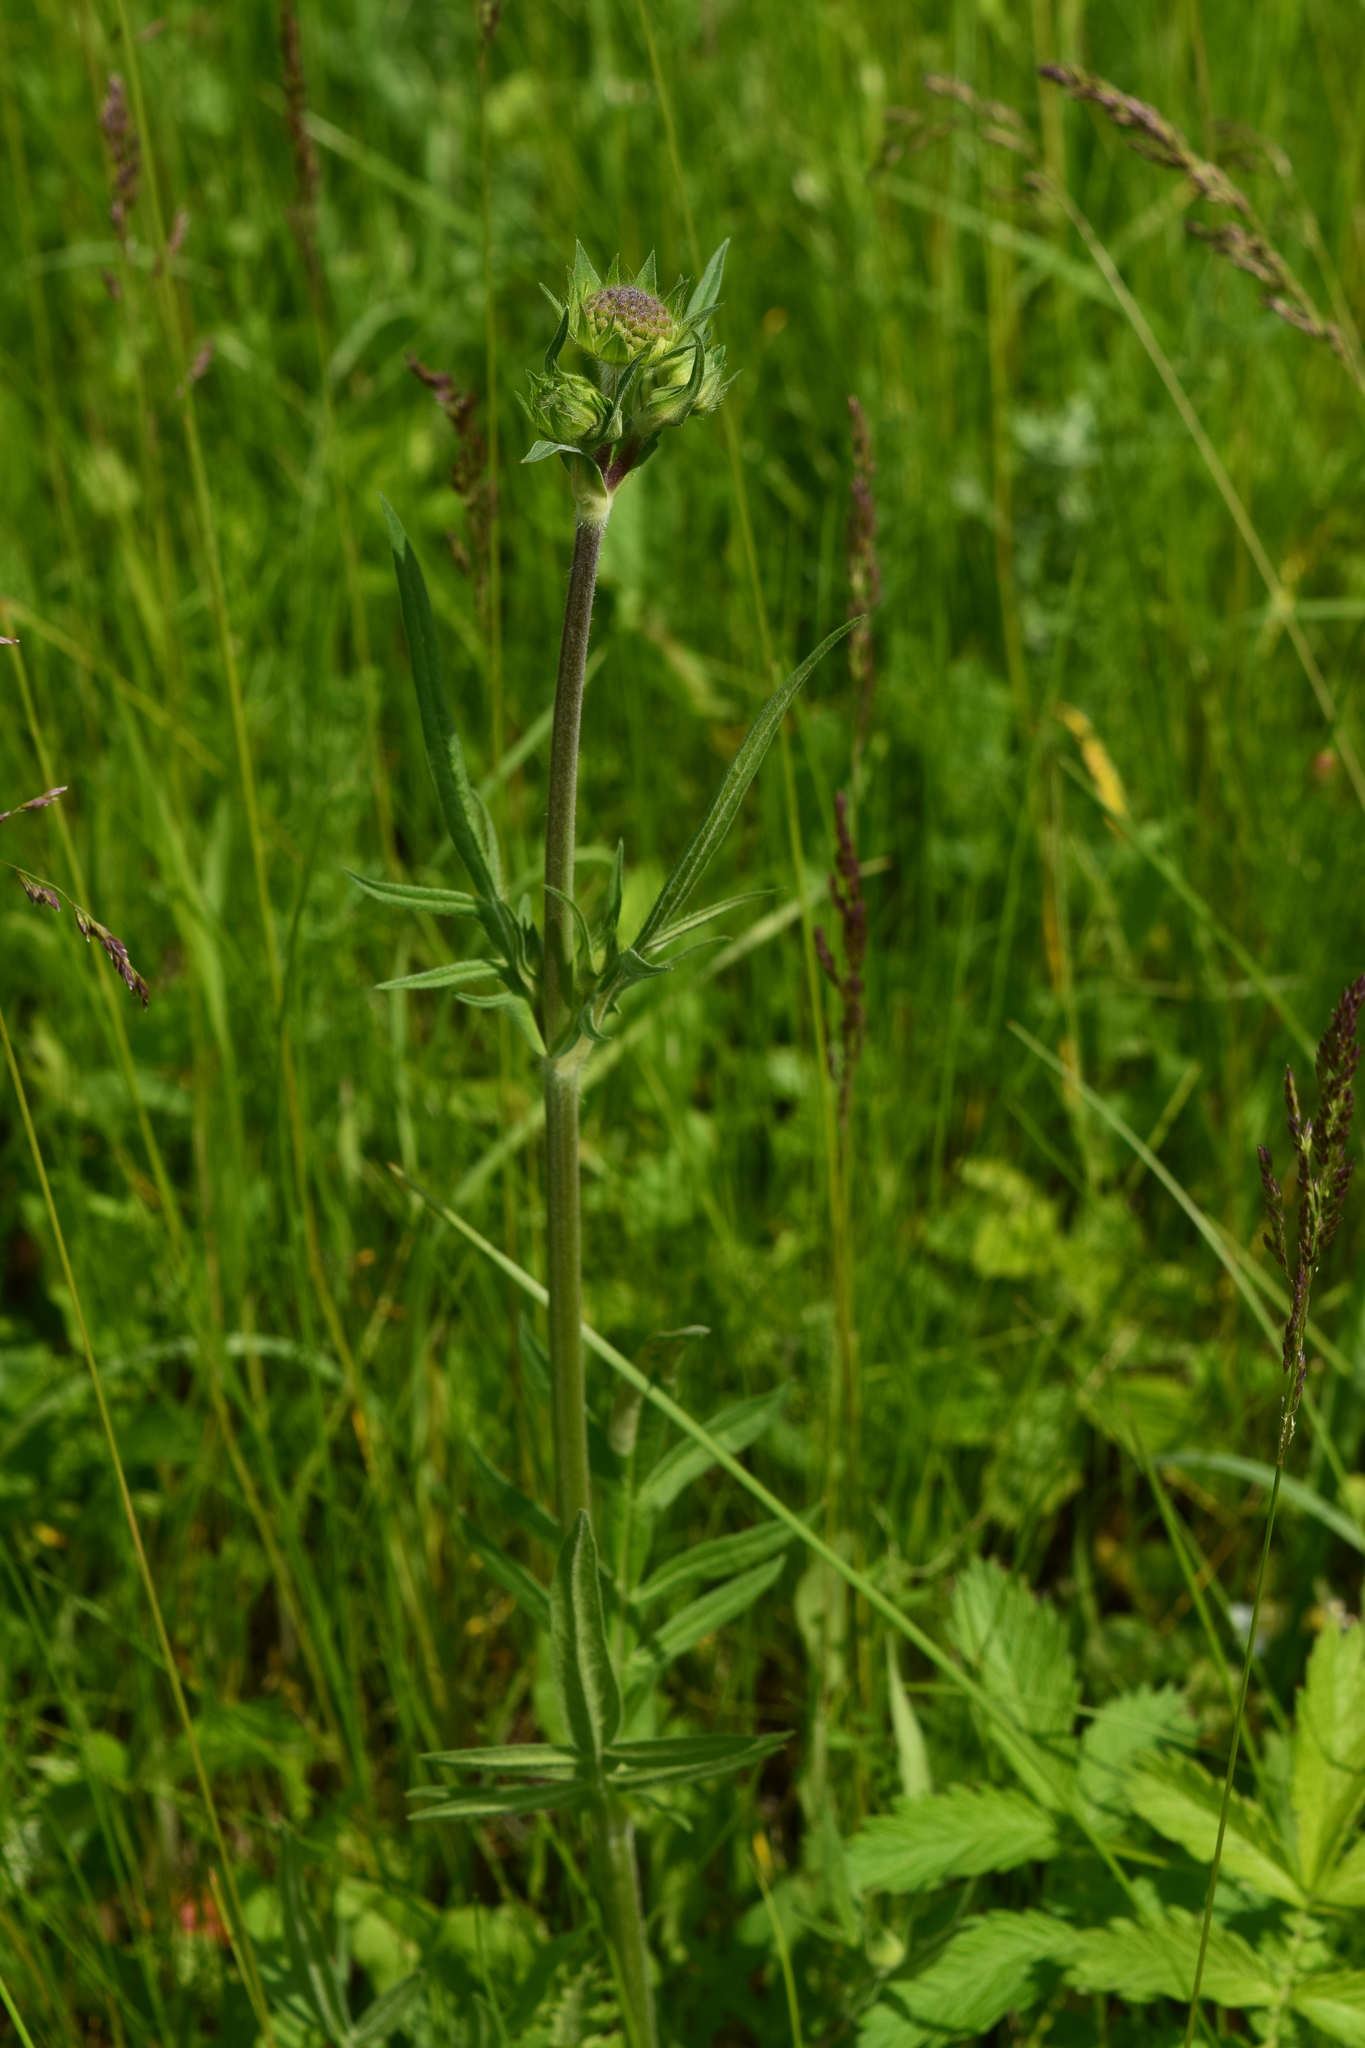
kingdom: Plantae
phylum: Tracheophyta
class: Magnoliopsida
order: Dipsacales
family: Caprifoliaceae
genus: Knautia
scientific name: Knautia arvensis
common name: Field scabiosa
